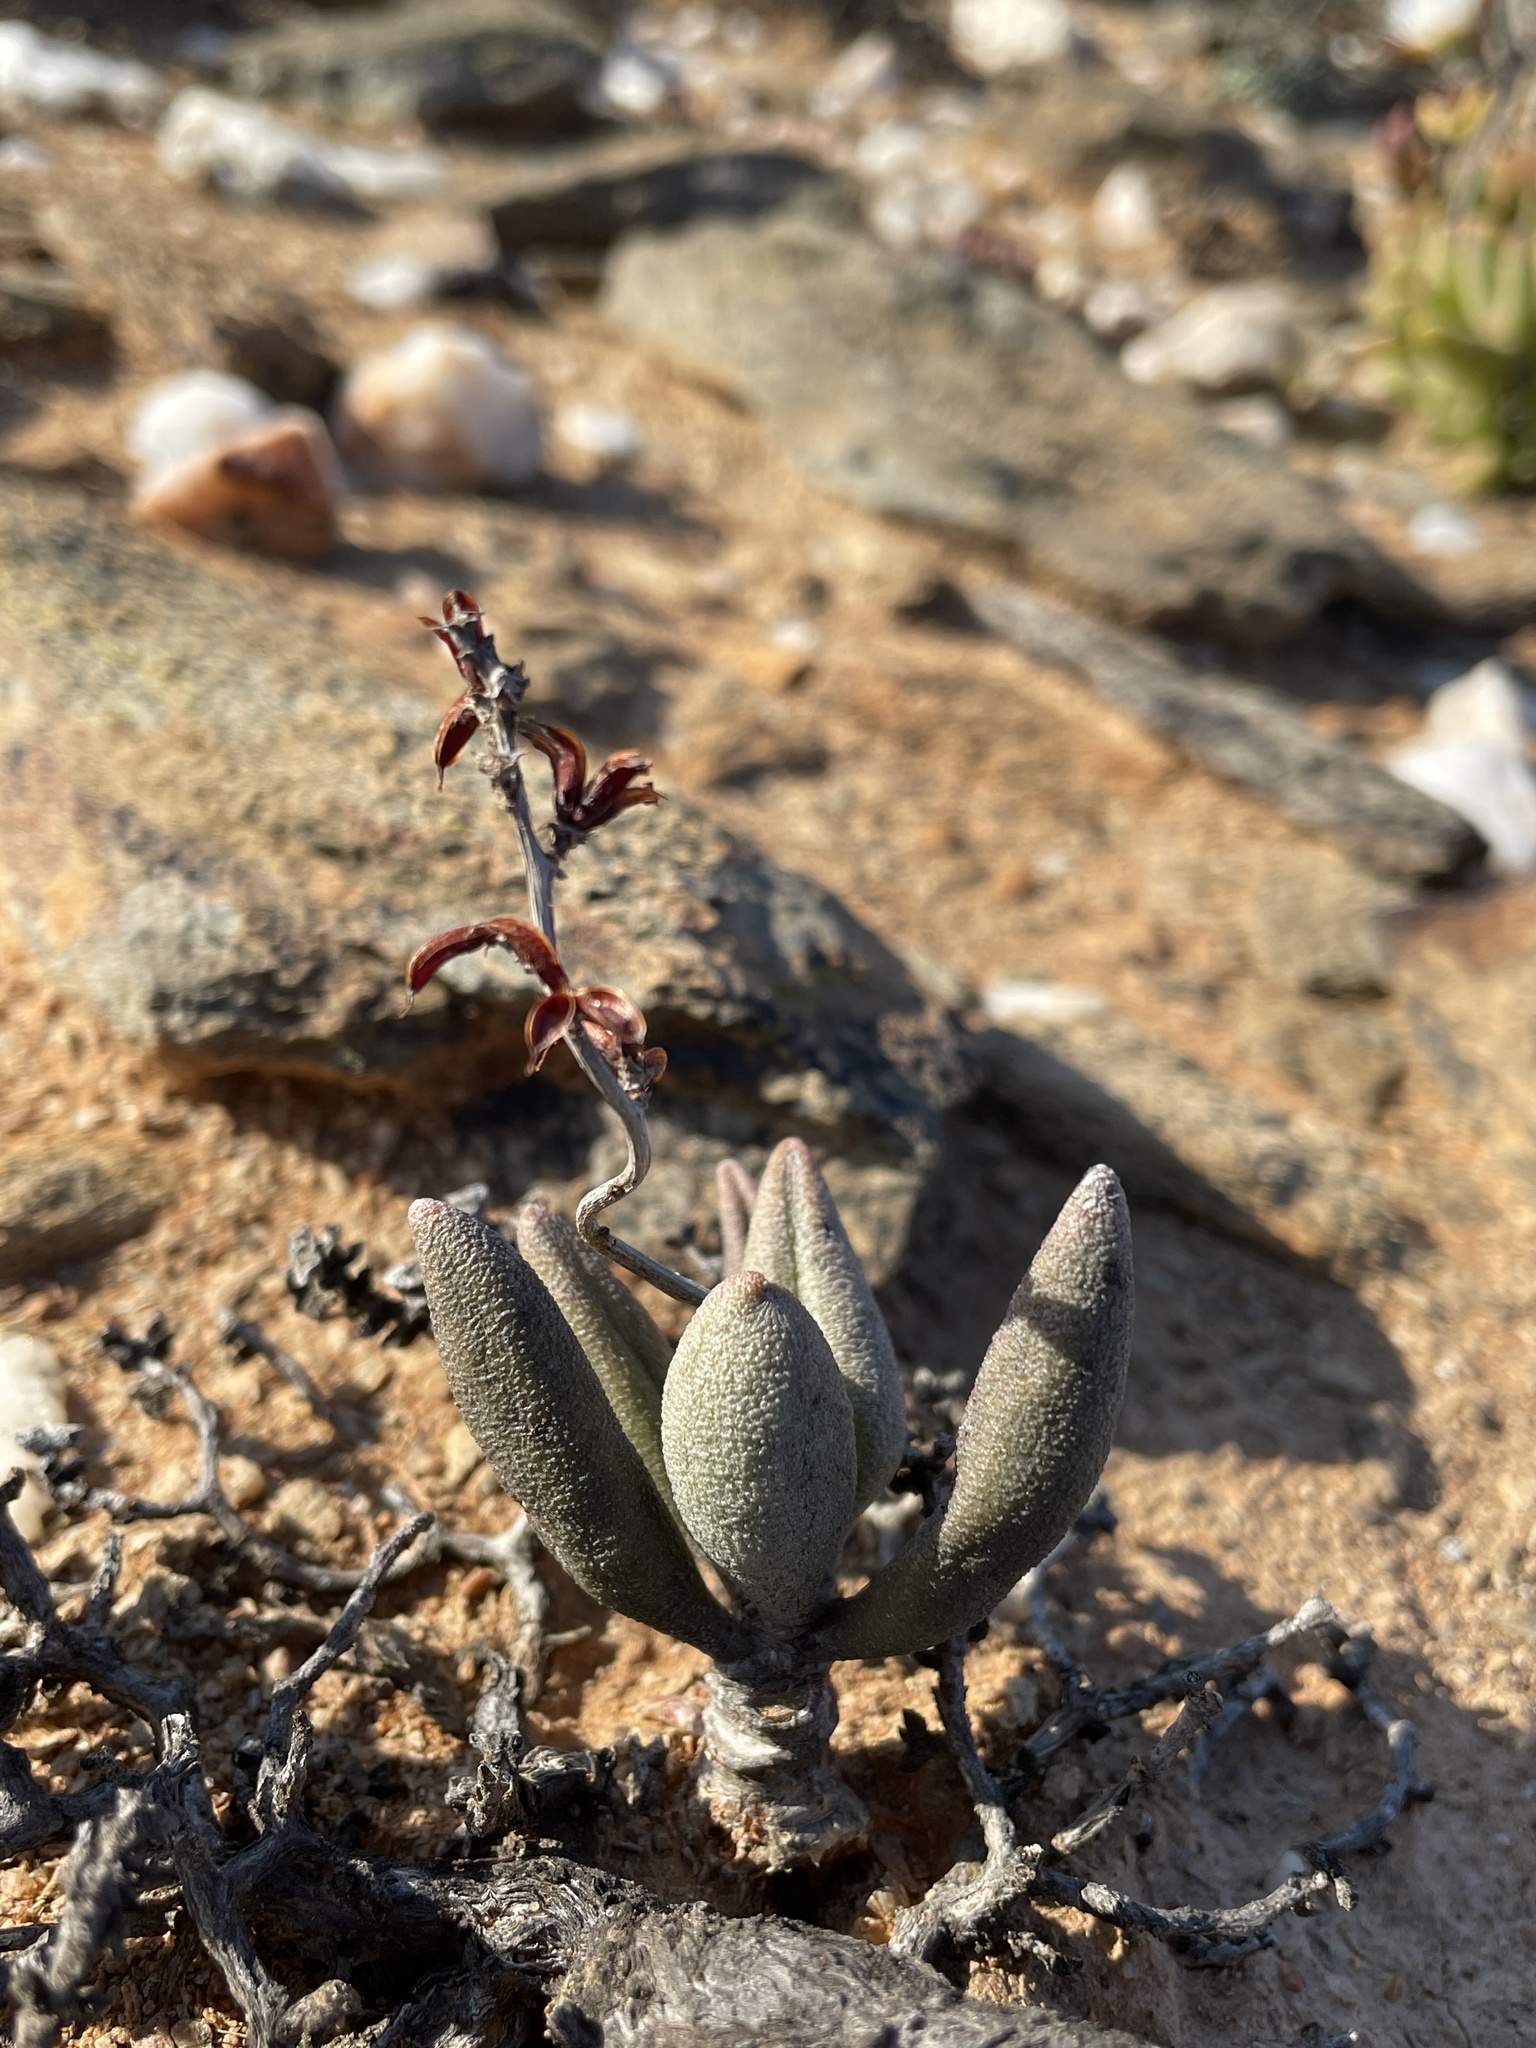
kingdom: Plantae
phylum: Tracheophyta
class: Magnoliopsida
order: Saxifragales
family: Crassulaceae
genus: Adromischus
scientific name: Adromischus marianiae
